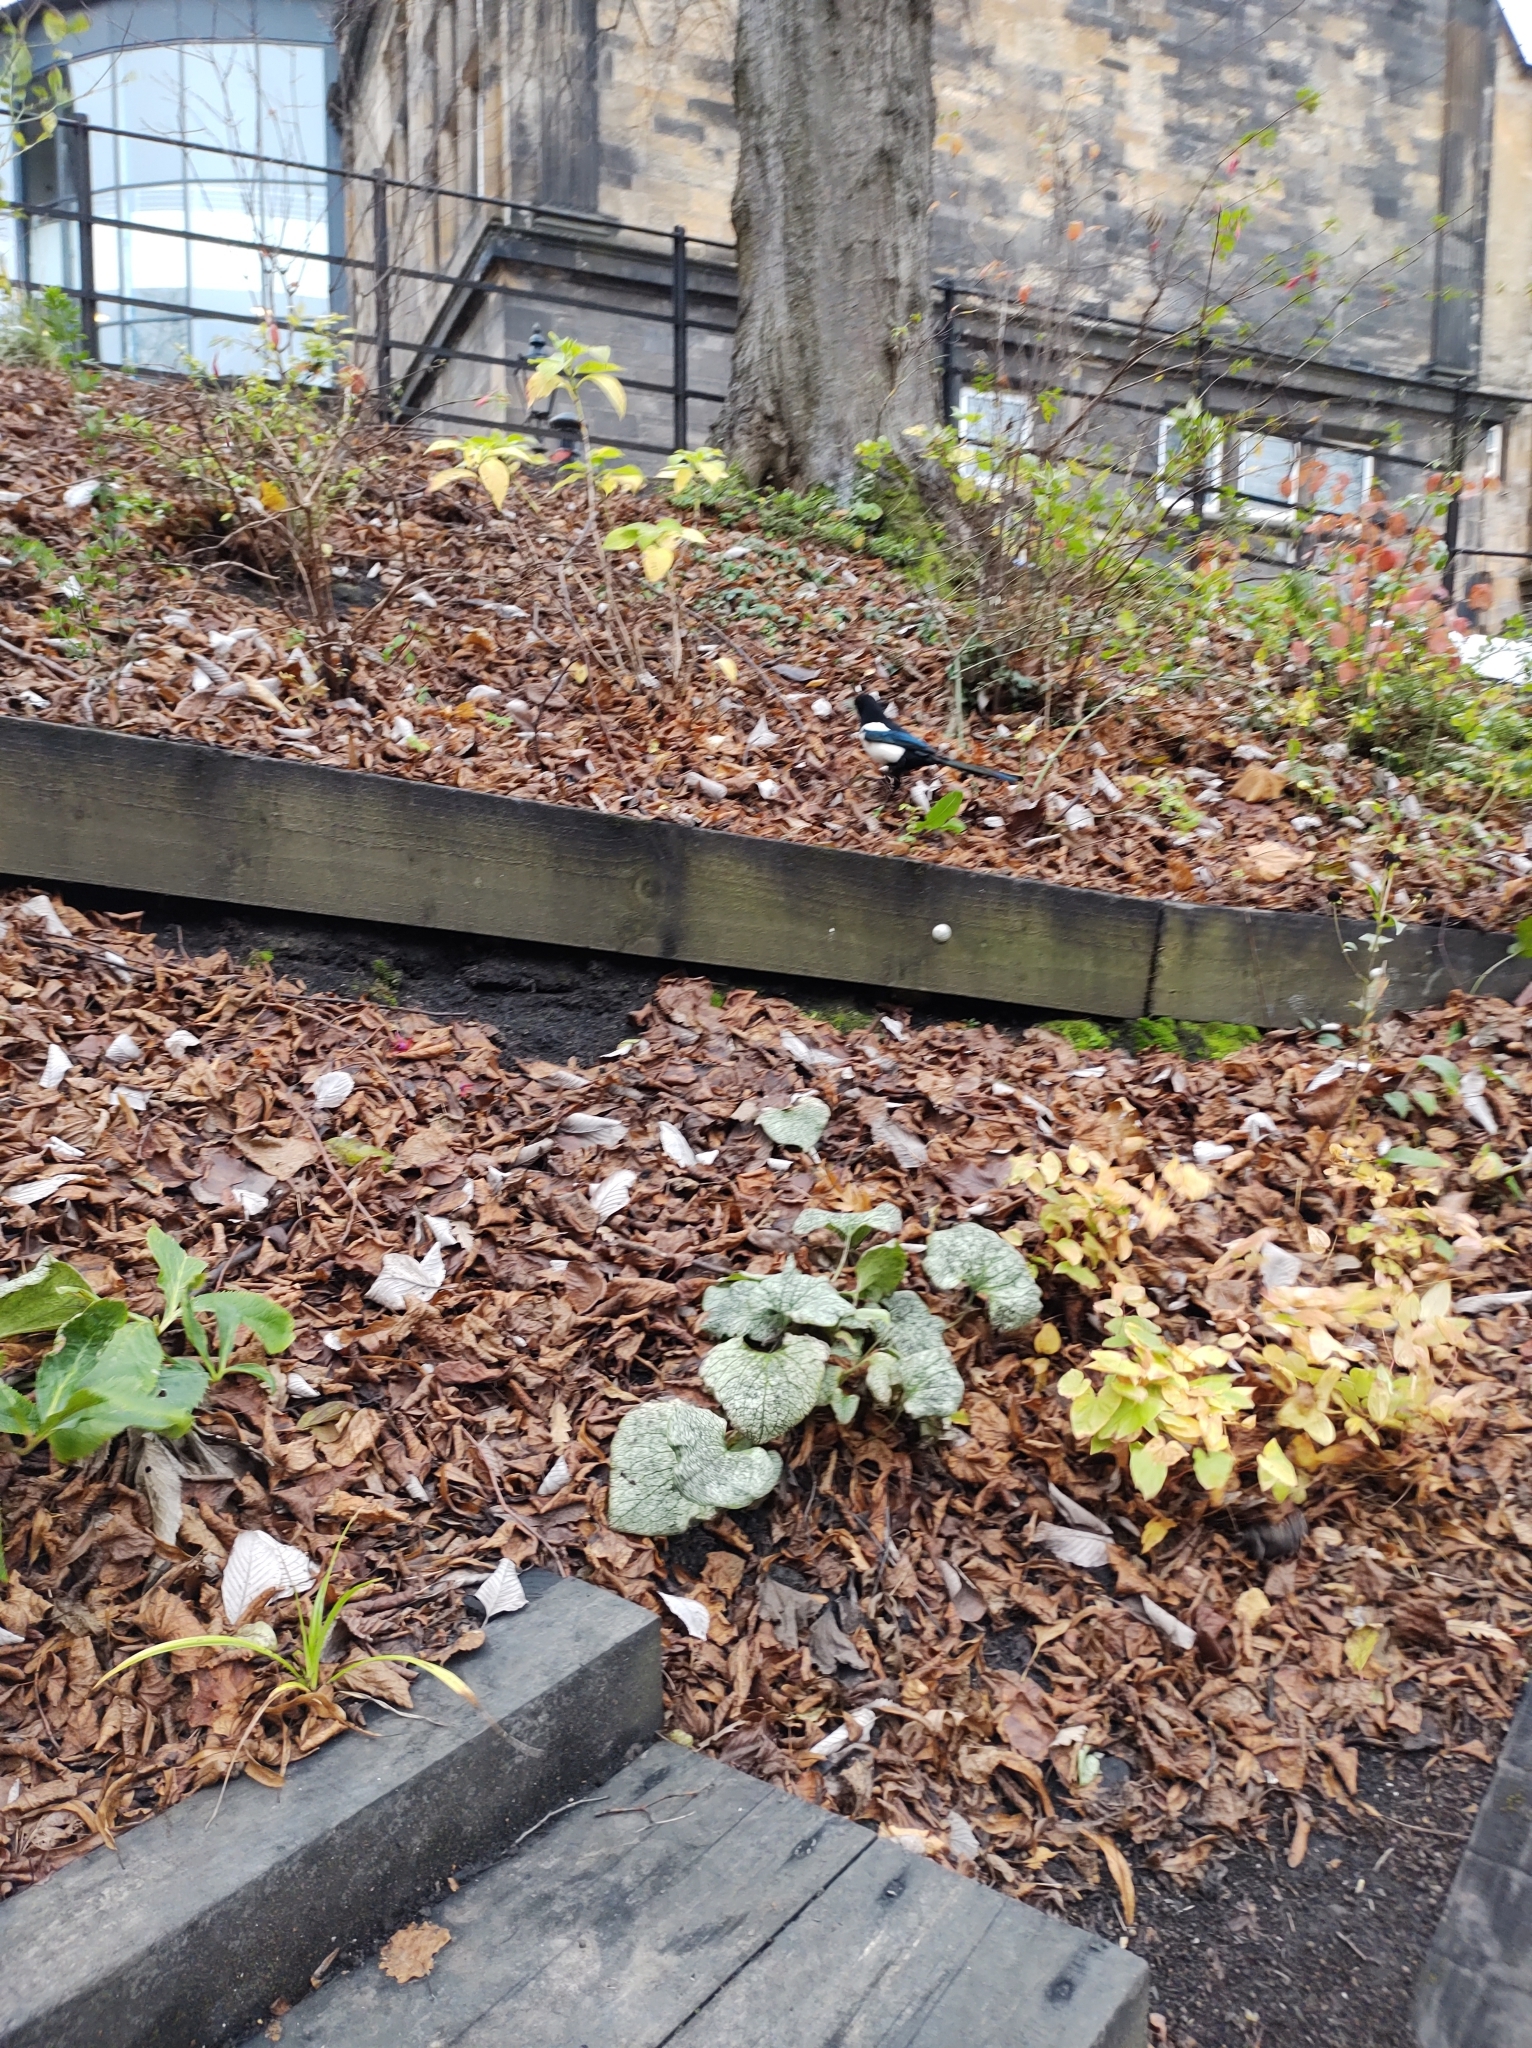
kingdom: Animalia
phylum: Chordata
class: Aves
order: Passeriformes
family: Corvidae
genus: Pica
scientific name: Pica pica
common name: Eurasian magpie
